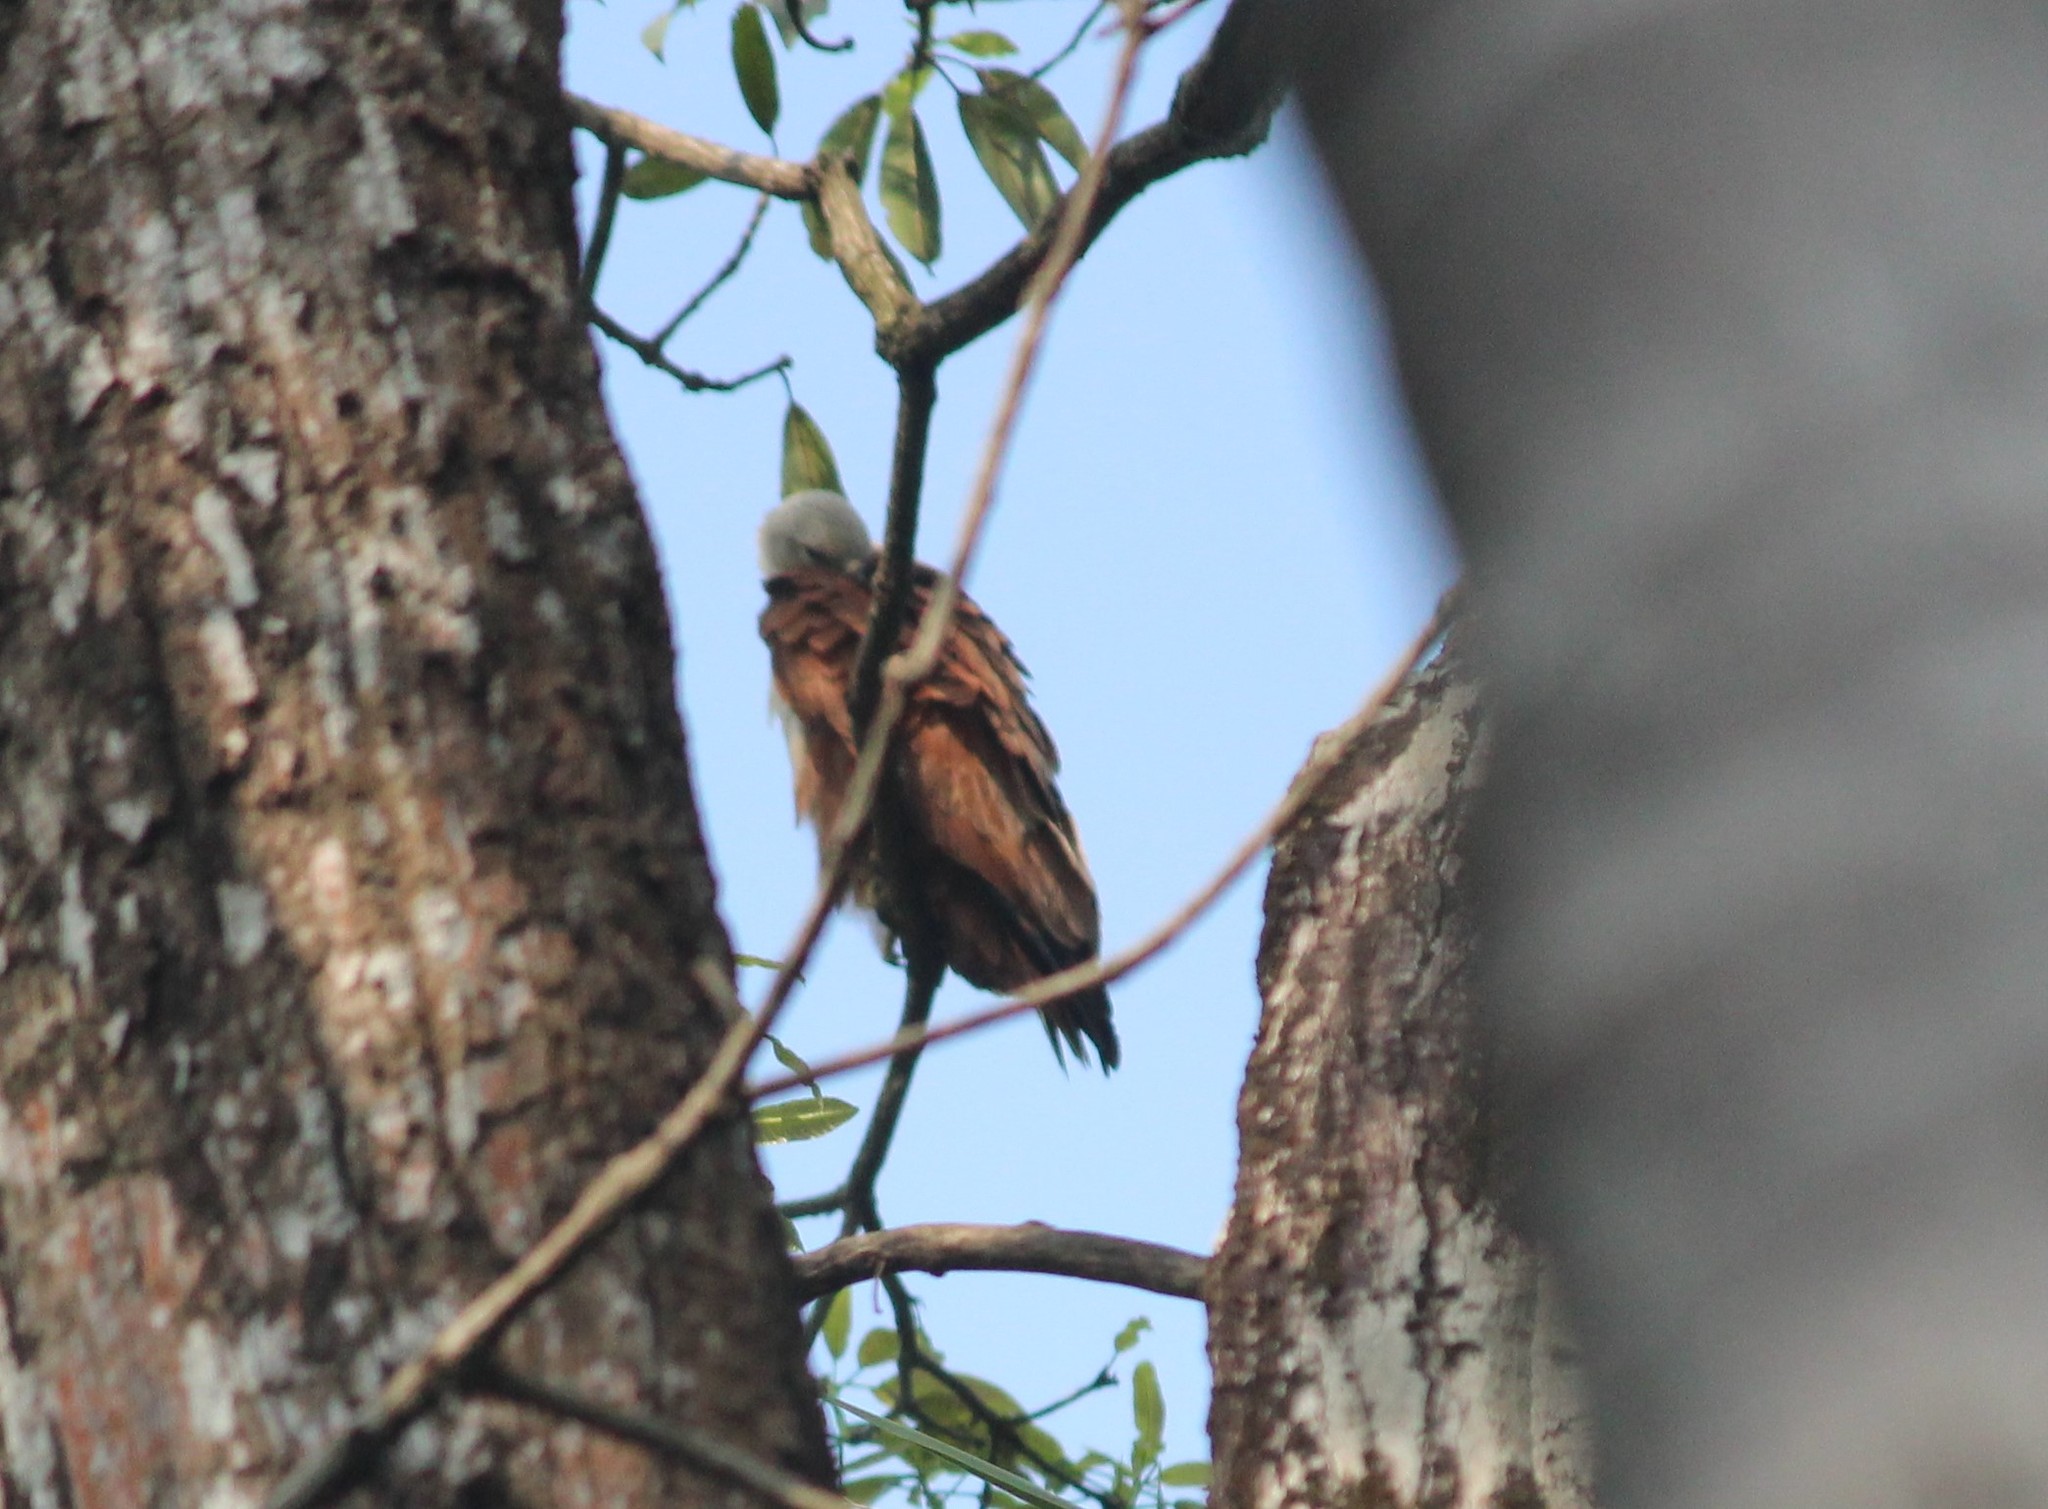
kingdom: Animalia
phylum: Chordata
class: Aves
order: Accipitriformes
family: Accipitridae
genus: Haliastur
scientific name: Haliastur indus
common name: Brahminy kite
